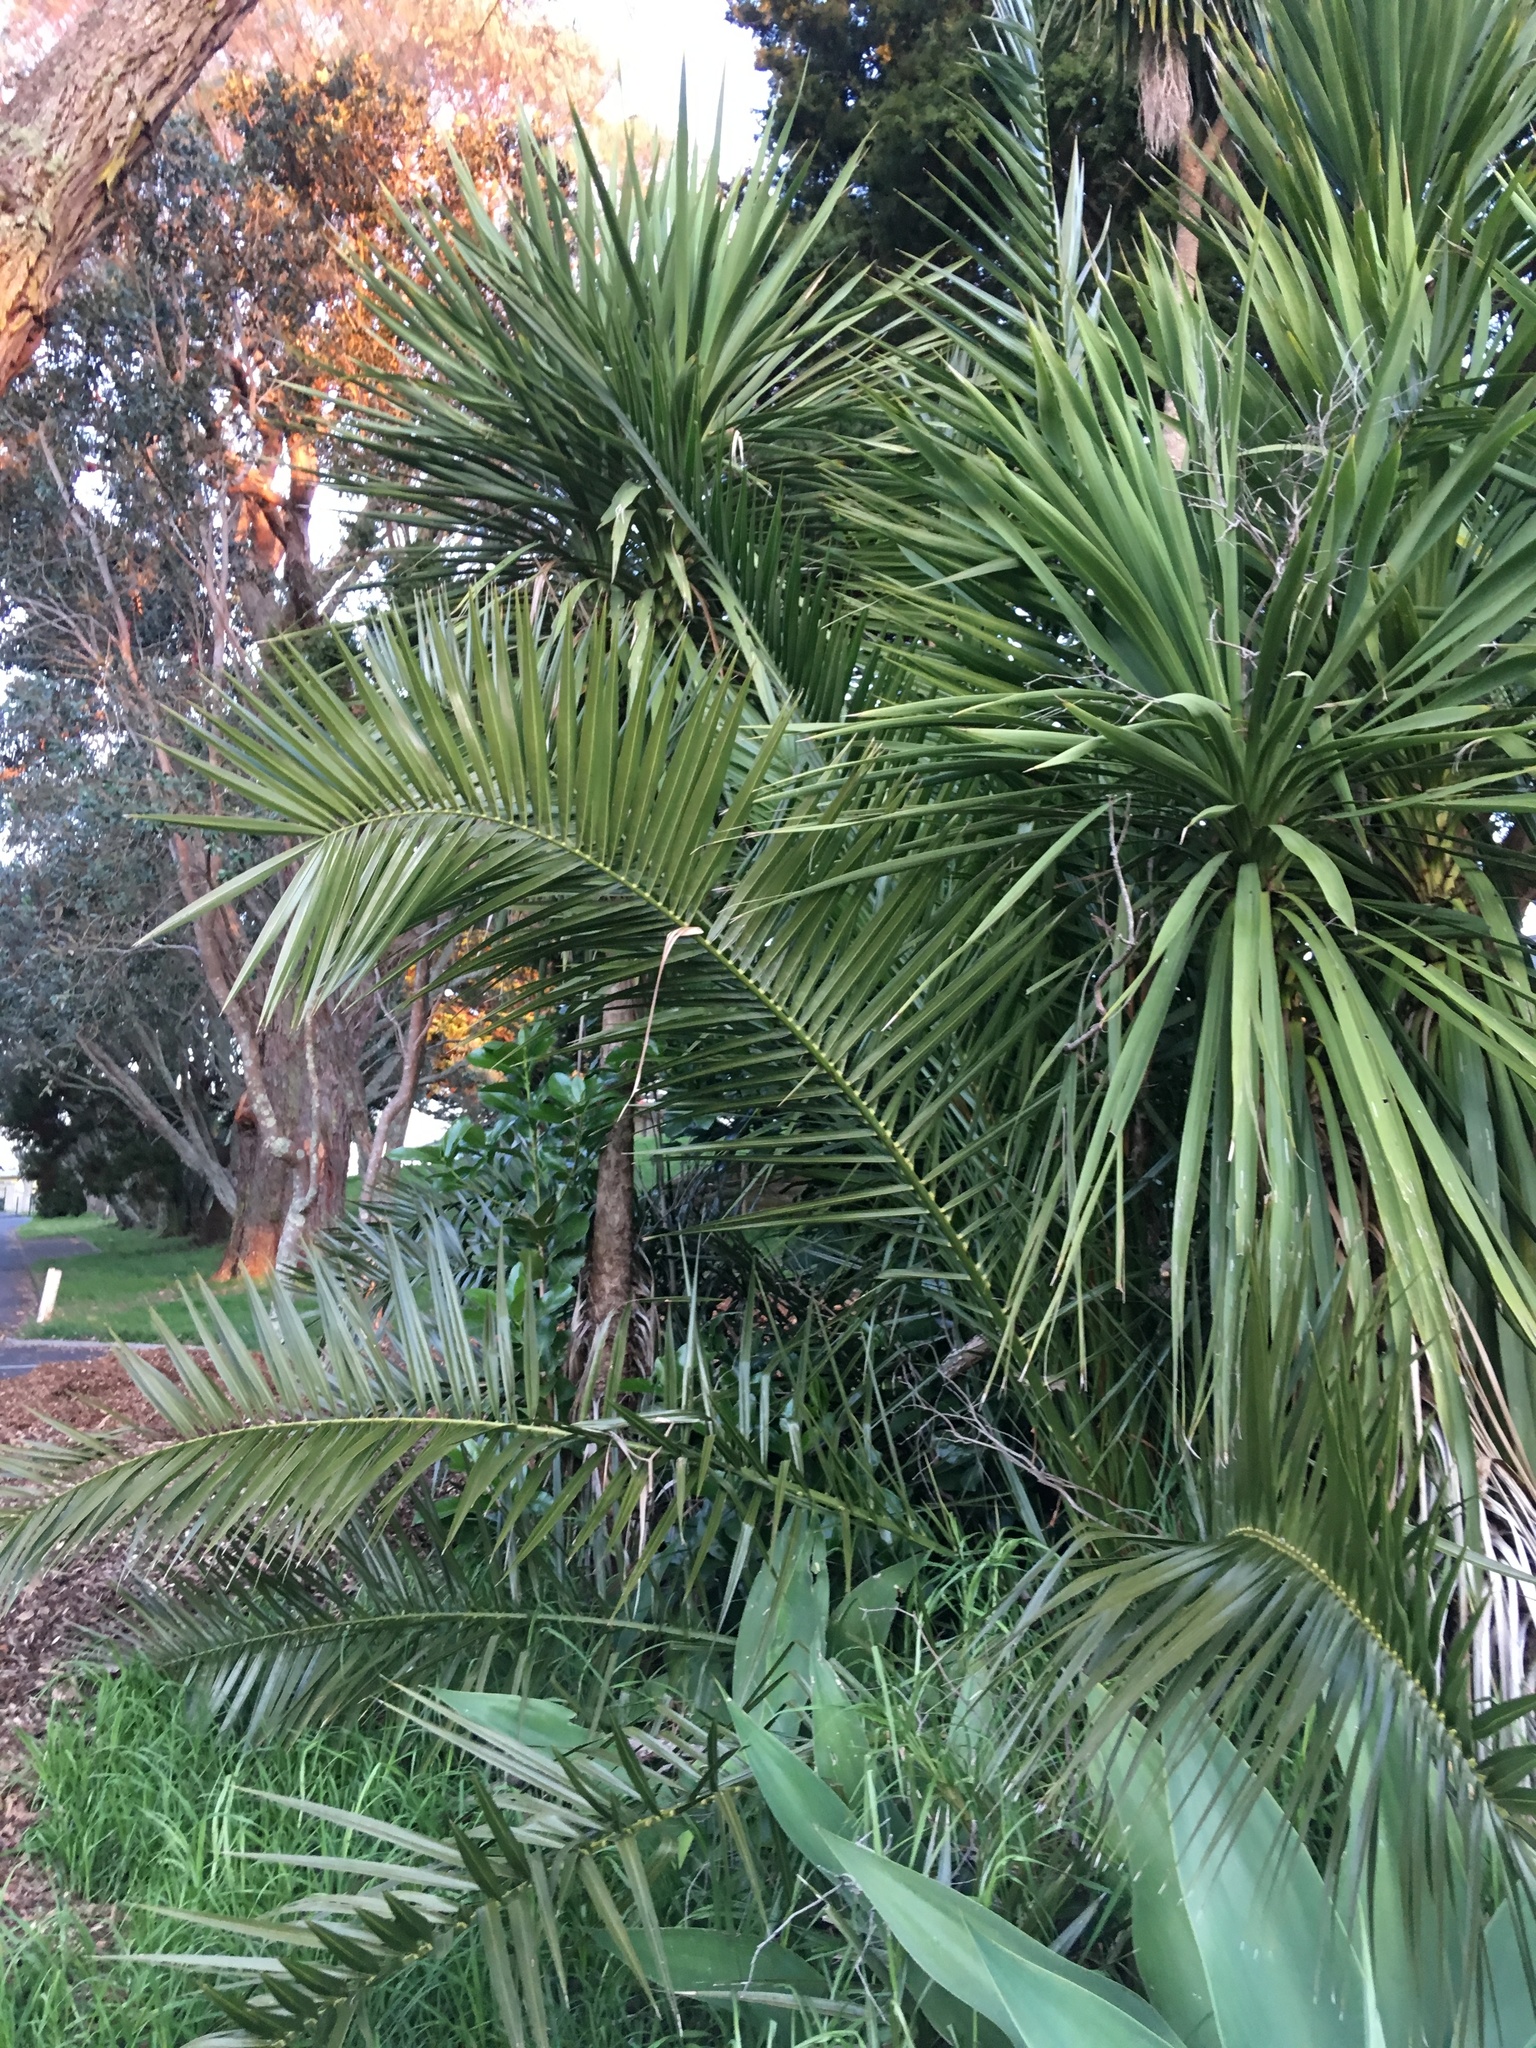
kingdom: Plantae
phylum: Tracheophyta
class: Liliopsida
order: Arecales
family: Arecaceae
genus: Phoenix
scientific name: Phoenix canariensis
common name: Canary island date palm
